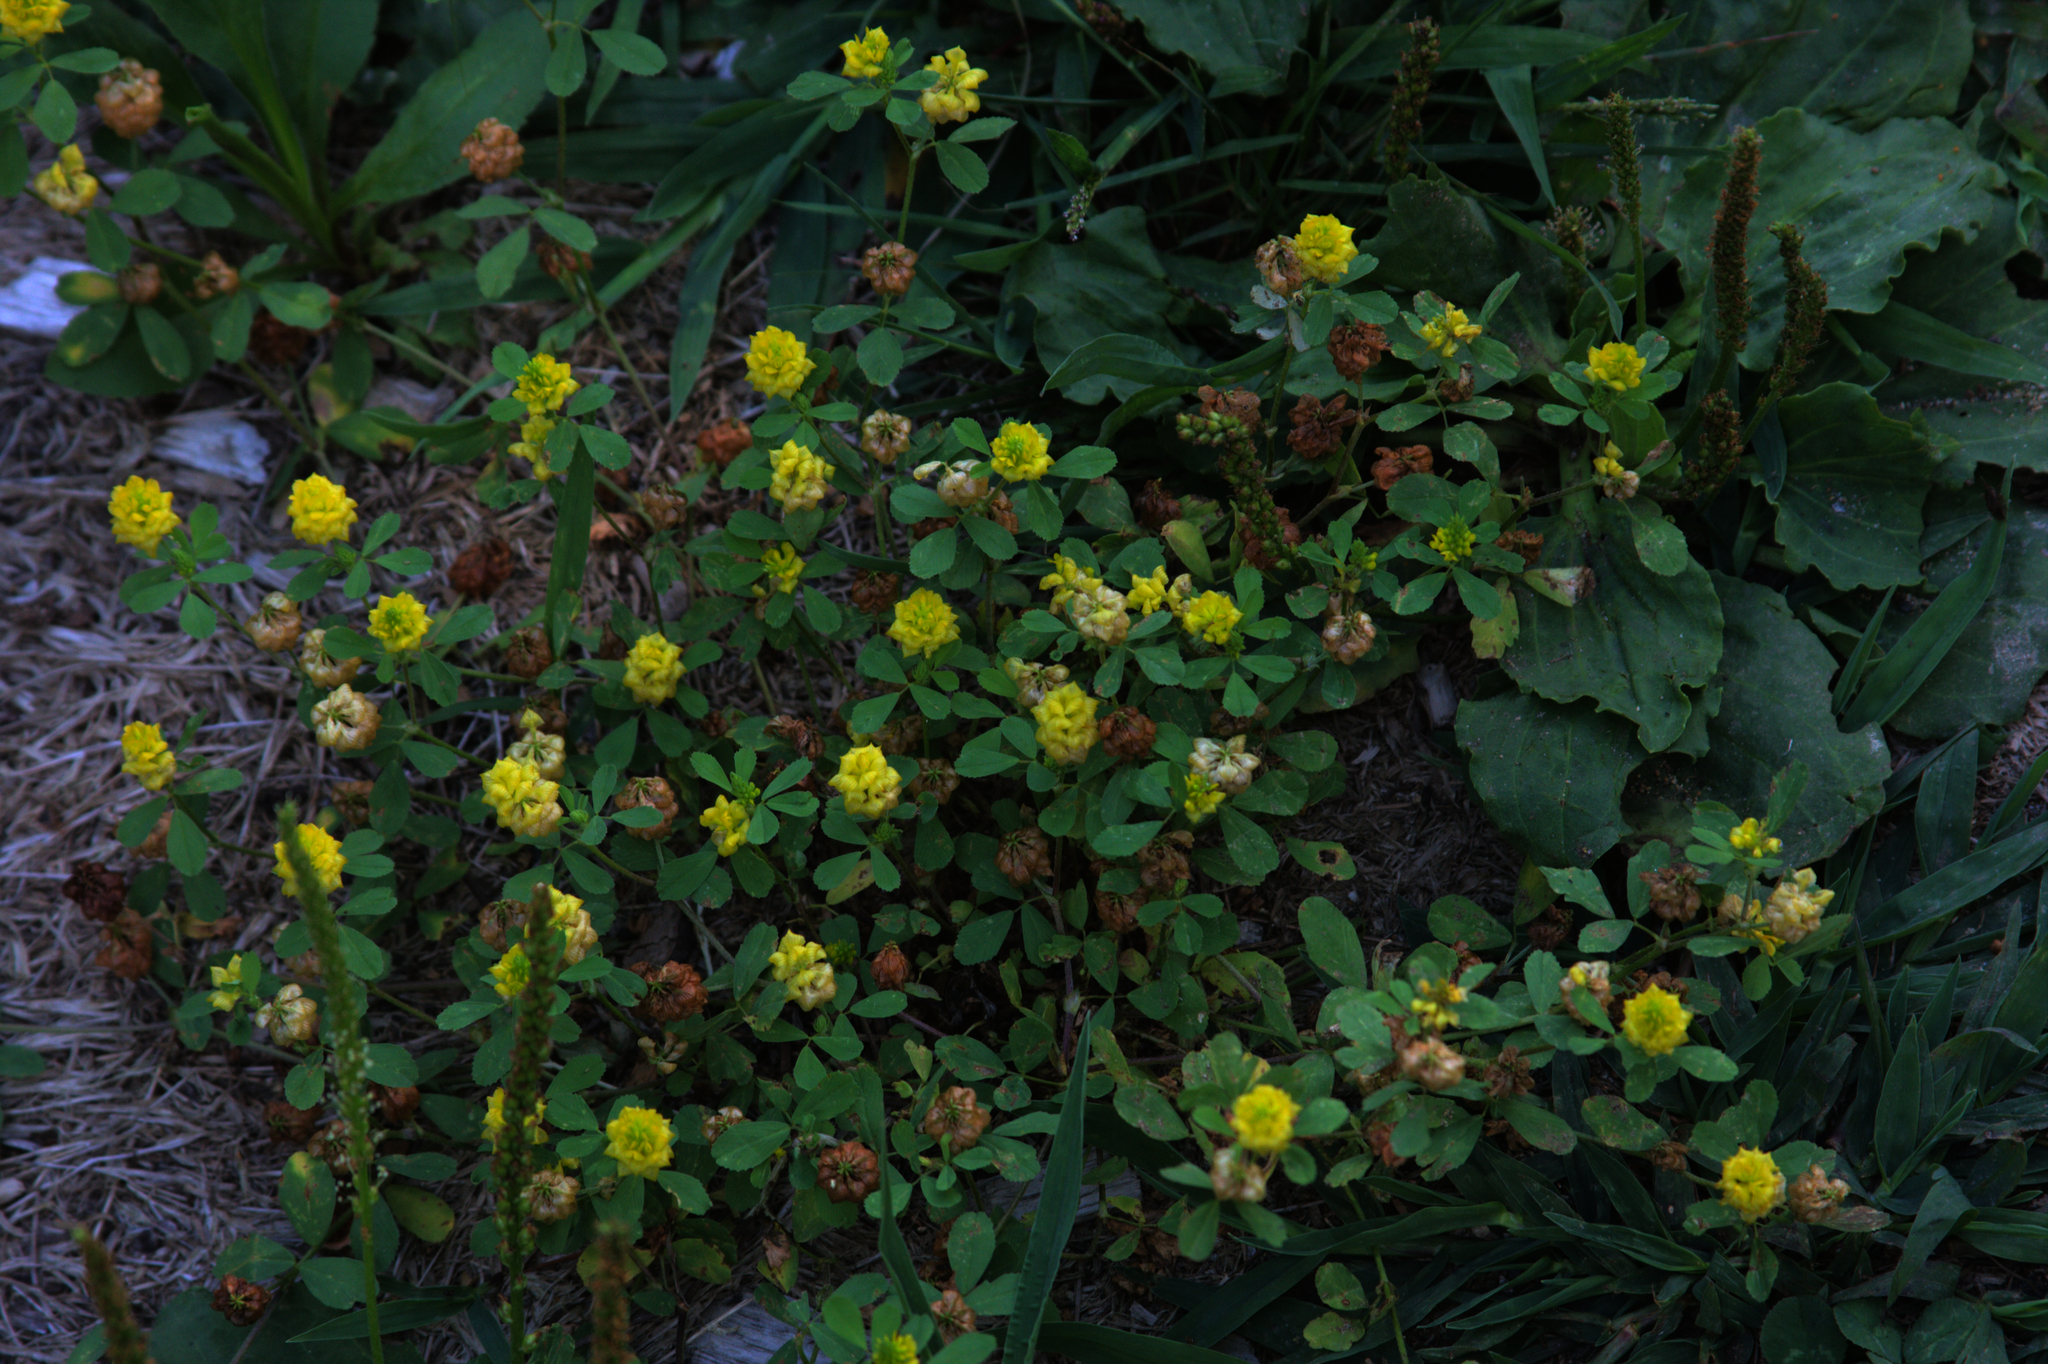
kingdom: Plantae
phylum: Tracheophyta
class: Magnoliopsida
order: Fabales
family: Fabaceae
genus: Trifolium
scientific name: Trifolium campestre
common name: Field clover
